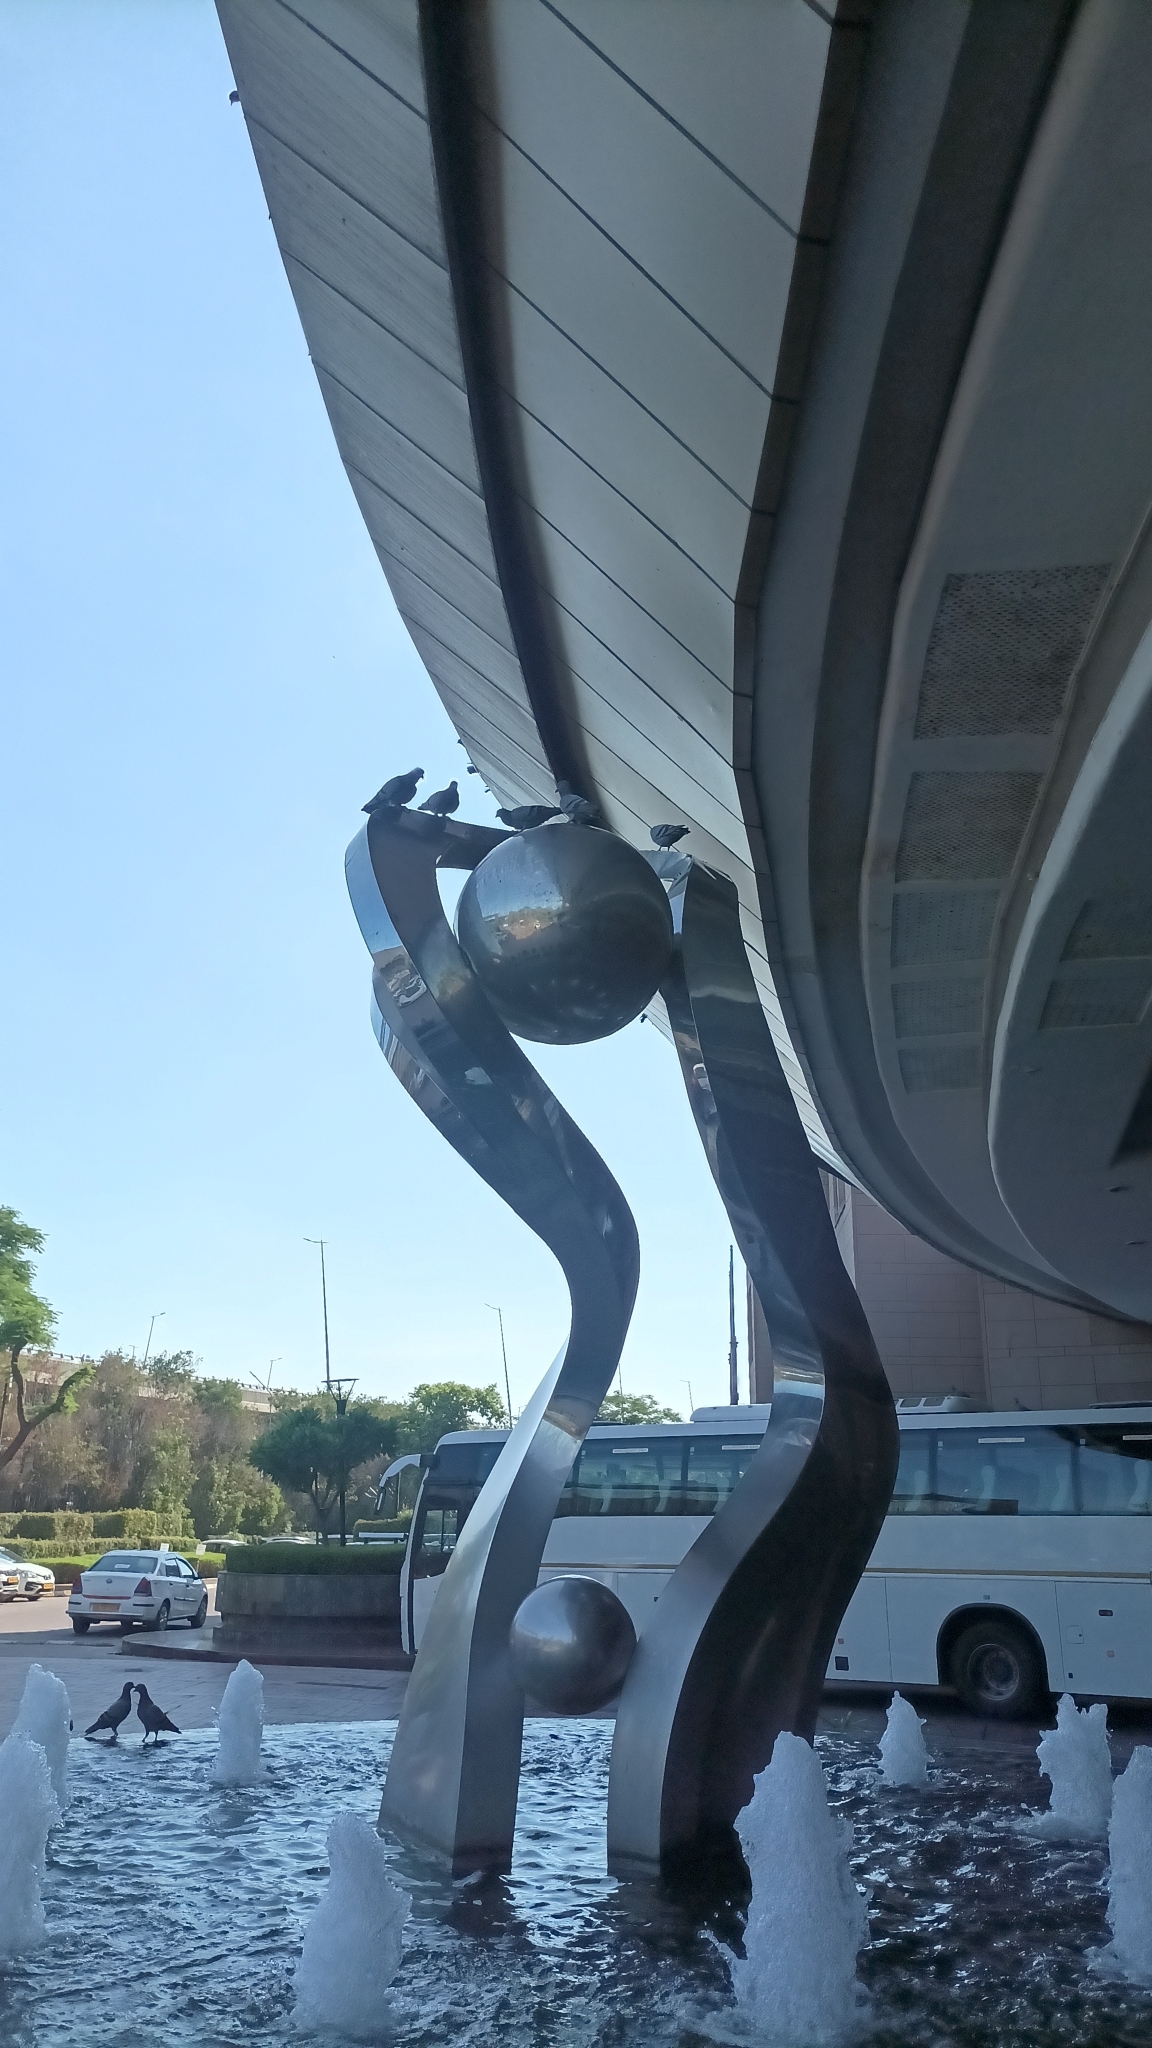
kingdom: Animalia
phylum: Chordata
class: Aves
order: Columbiformes
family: Columbidae
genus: Columba
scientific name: Columba livia
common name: Rock pigeon
